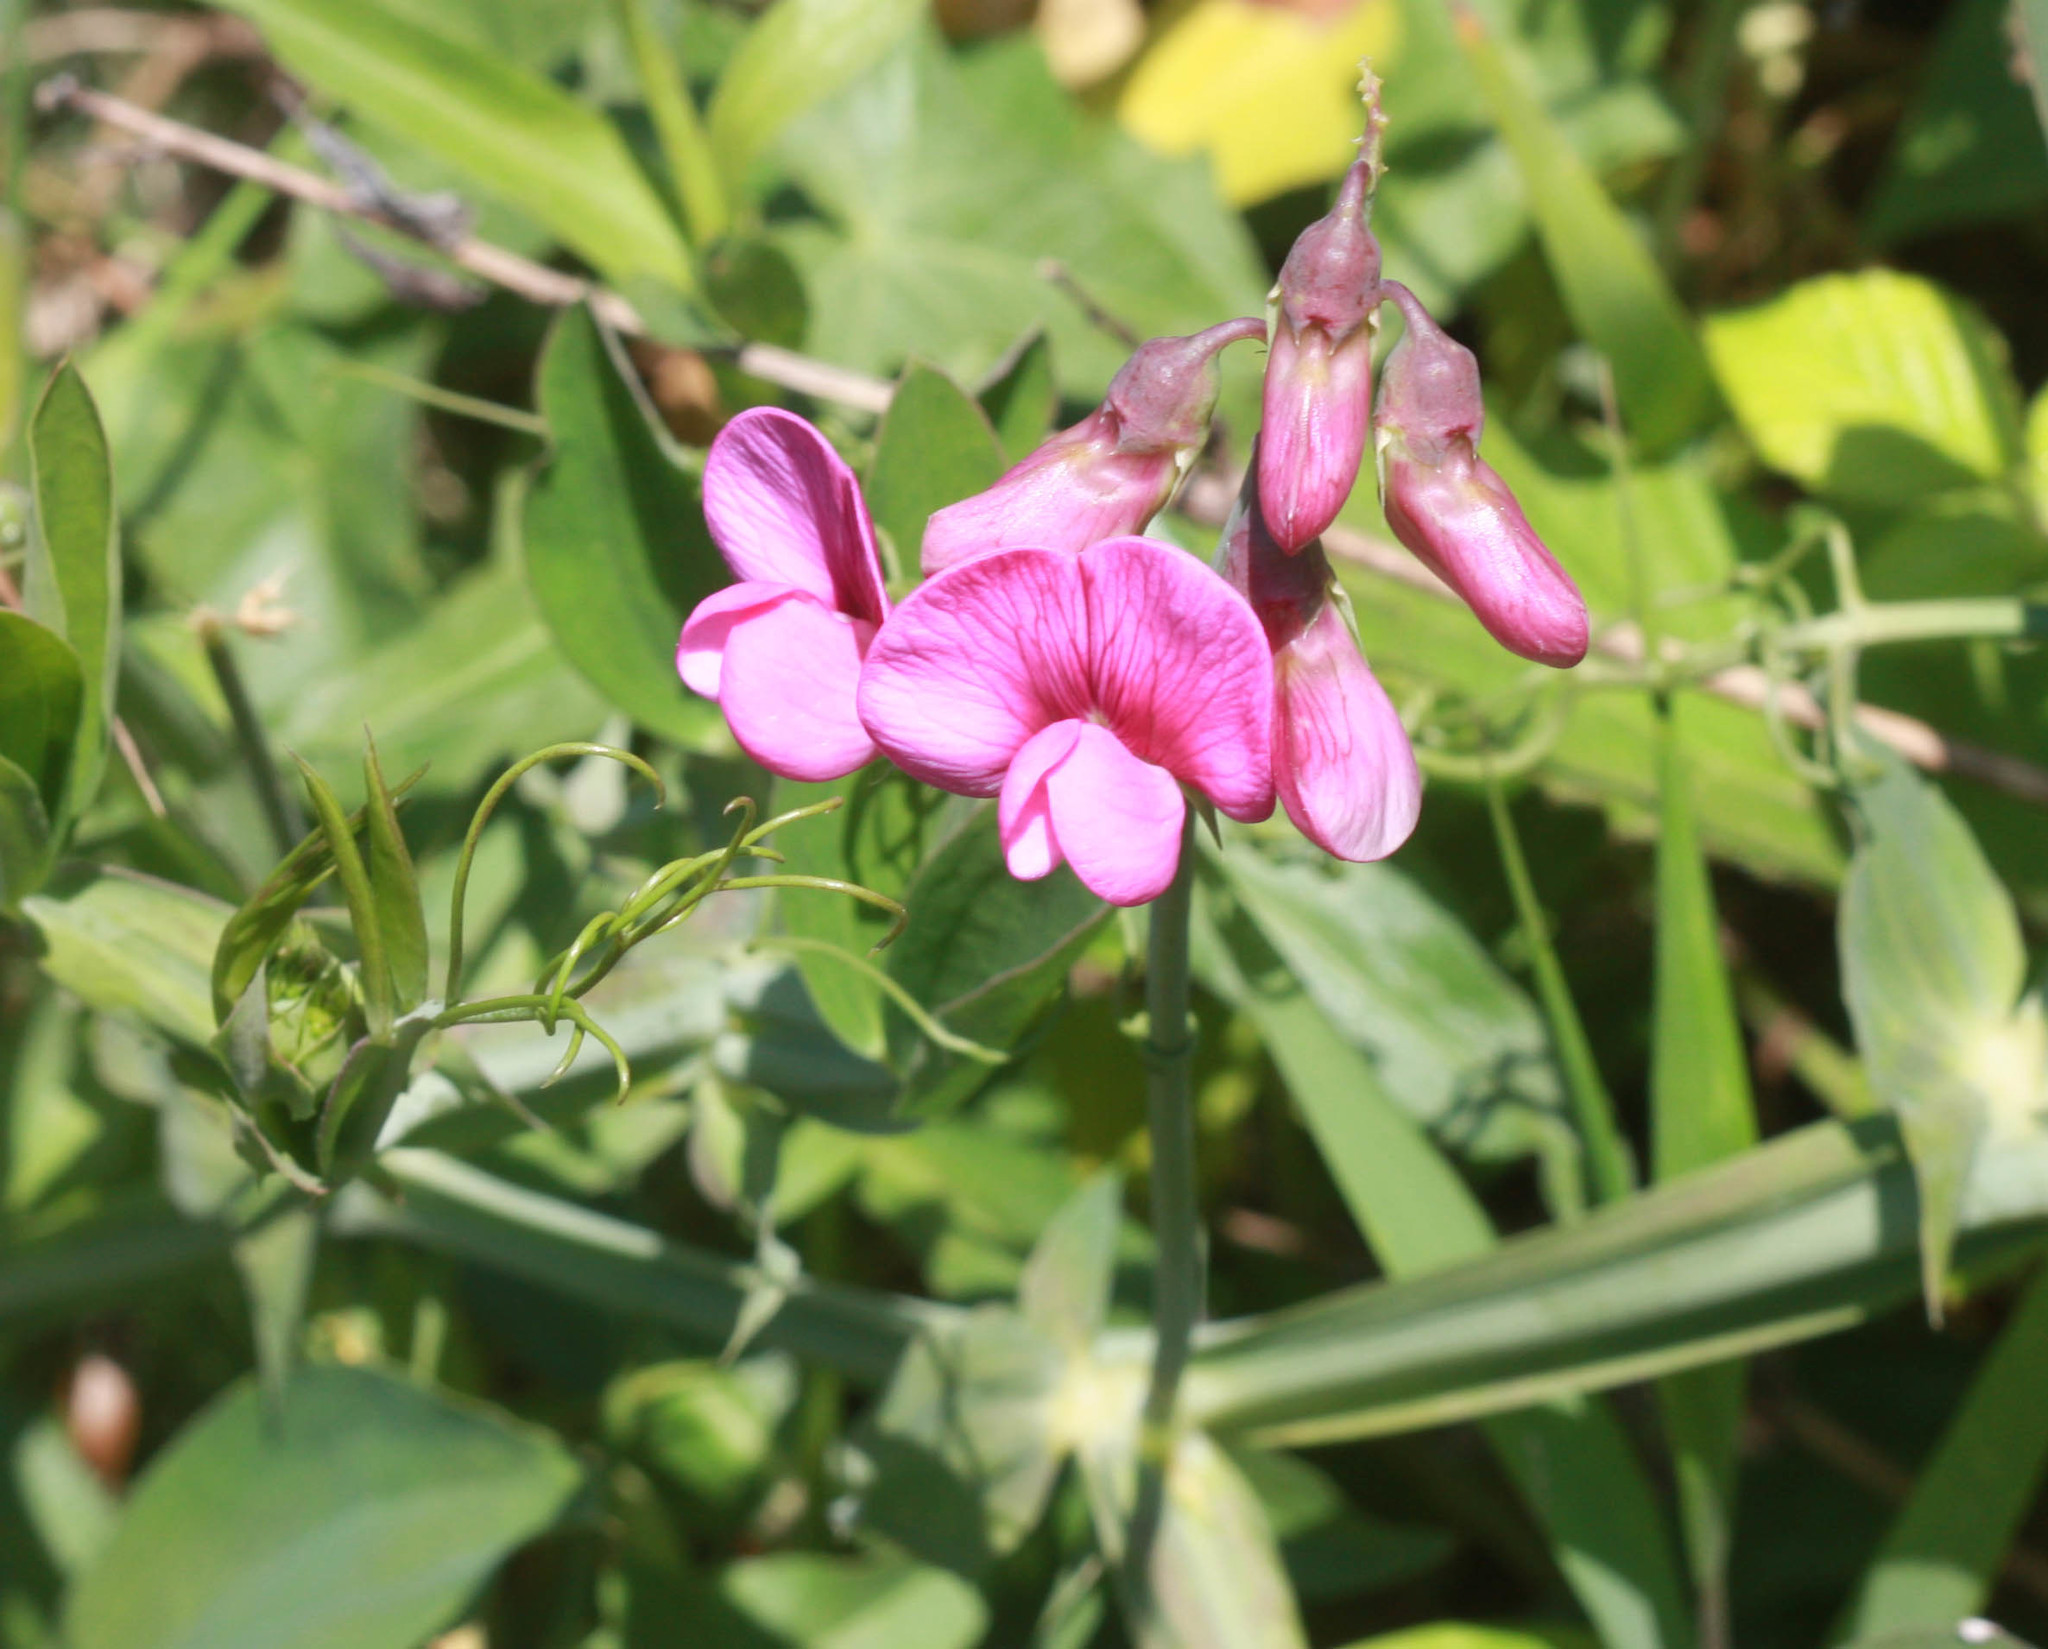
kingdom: Plantae
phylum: Tracheophyta
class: Magnoliopsida
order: Fabales
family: Fabaceae
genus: Lathyrus
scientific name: Lathyrus latifolius
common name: Perennial pea
